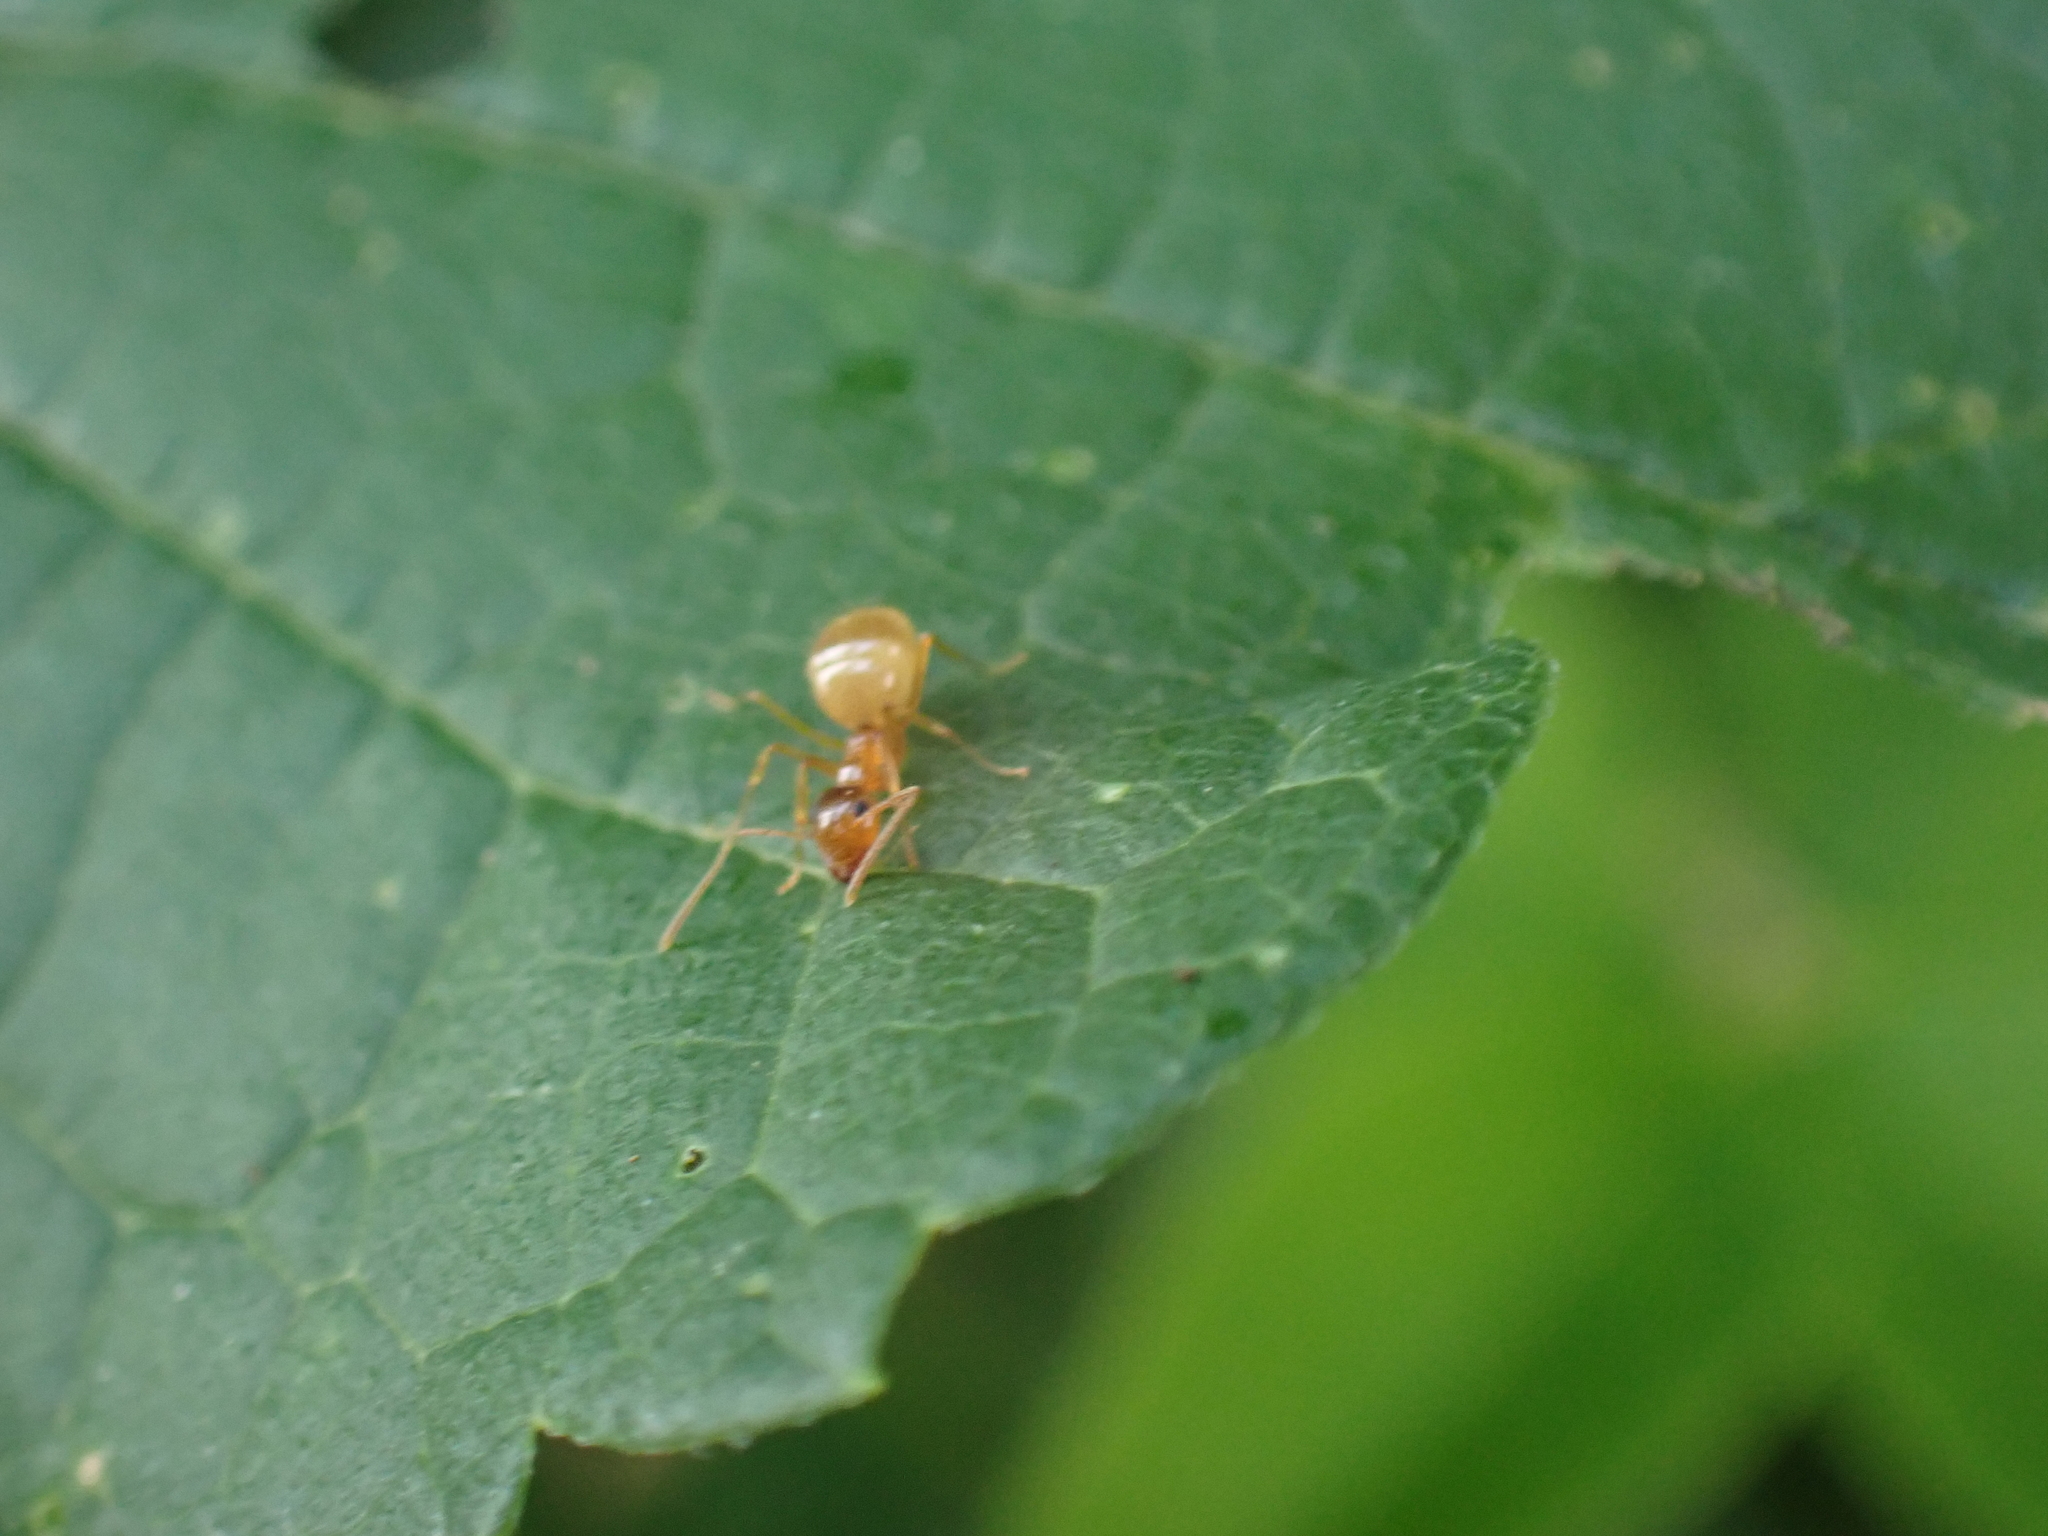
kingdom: Animalia
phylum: Arthropoda
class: Insecta
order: Hymenoptera
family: Formicidae
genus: Prenolepis
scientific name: Prenolepis imparis
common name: Small honey ant
